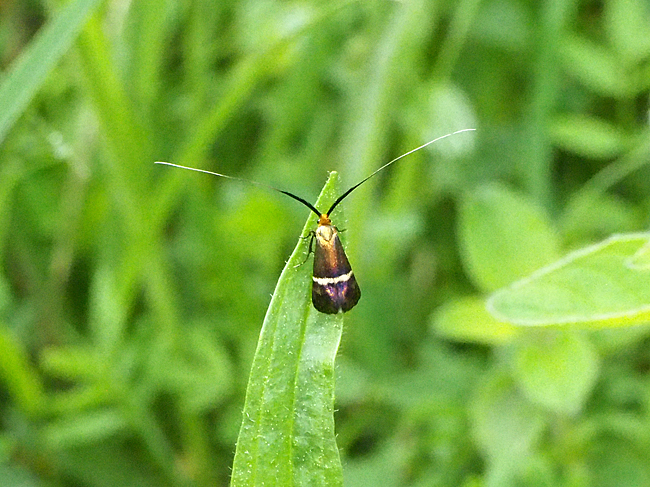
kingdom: Animalia
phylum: Arthropoda
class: Insecta
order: Lepidoptera
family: Adelidae
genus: Adela
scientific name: Adela australis
